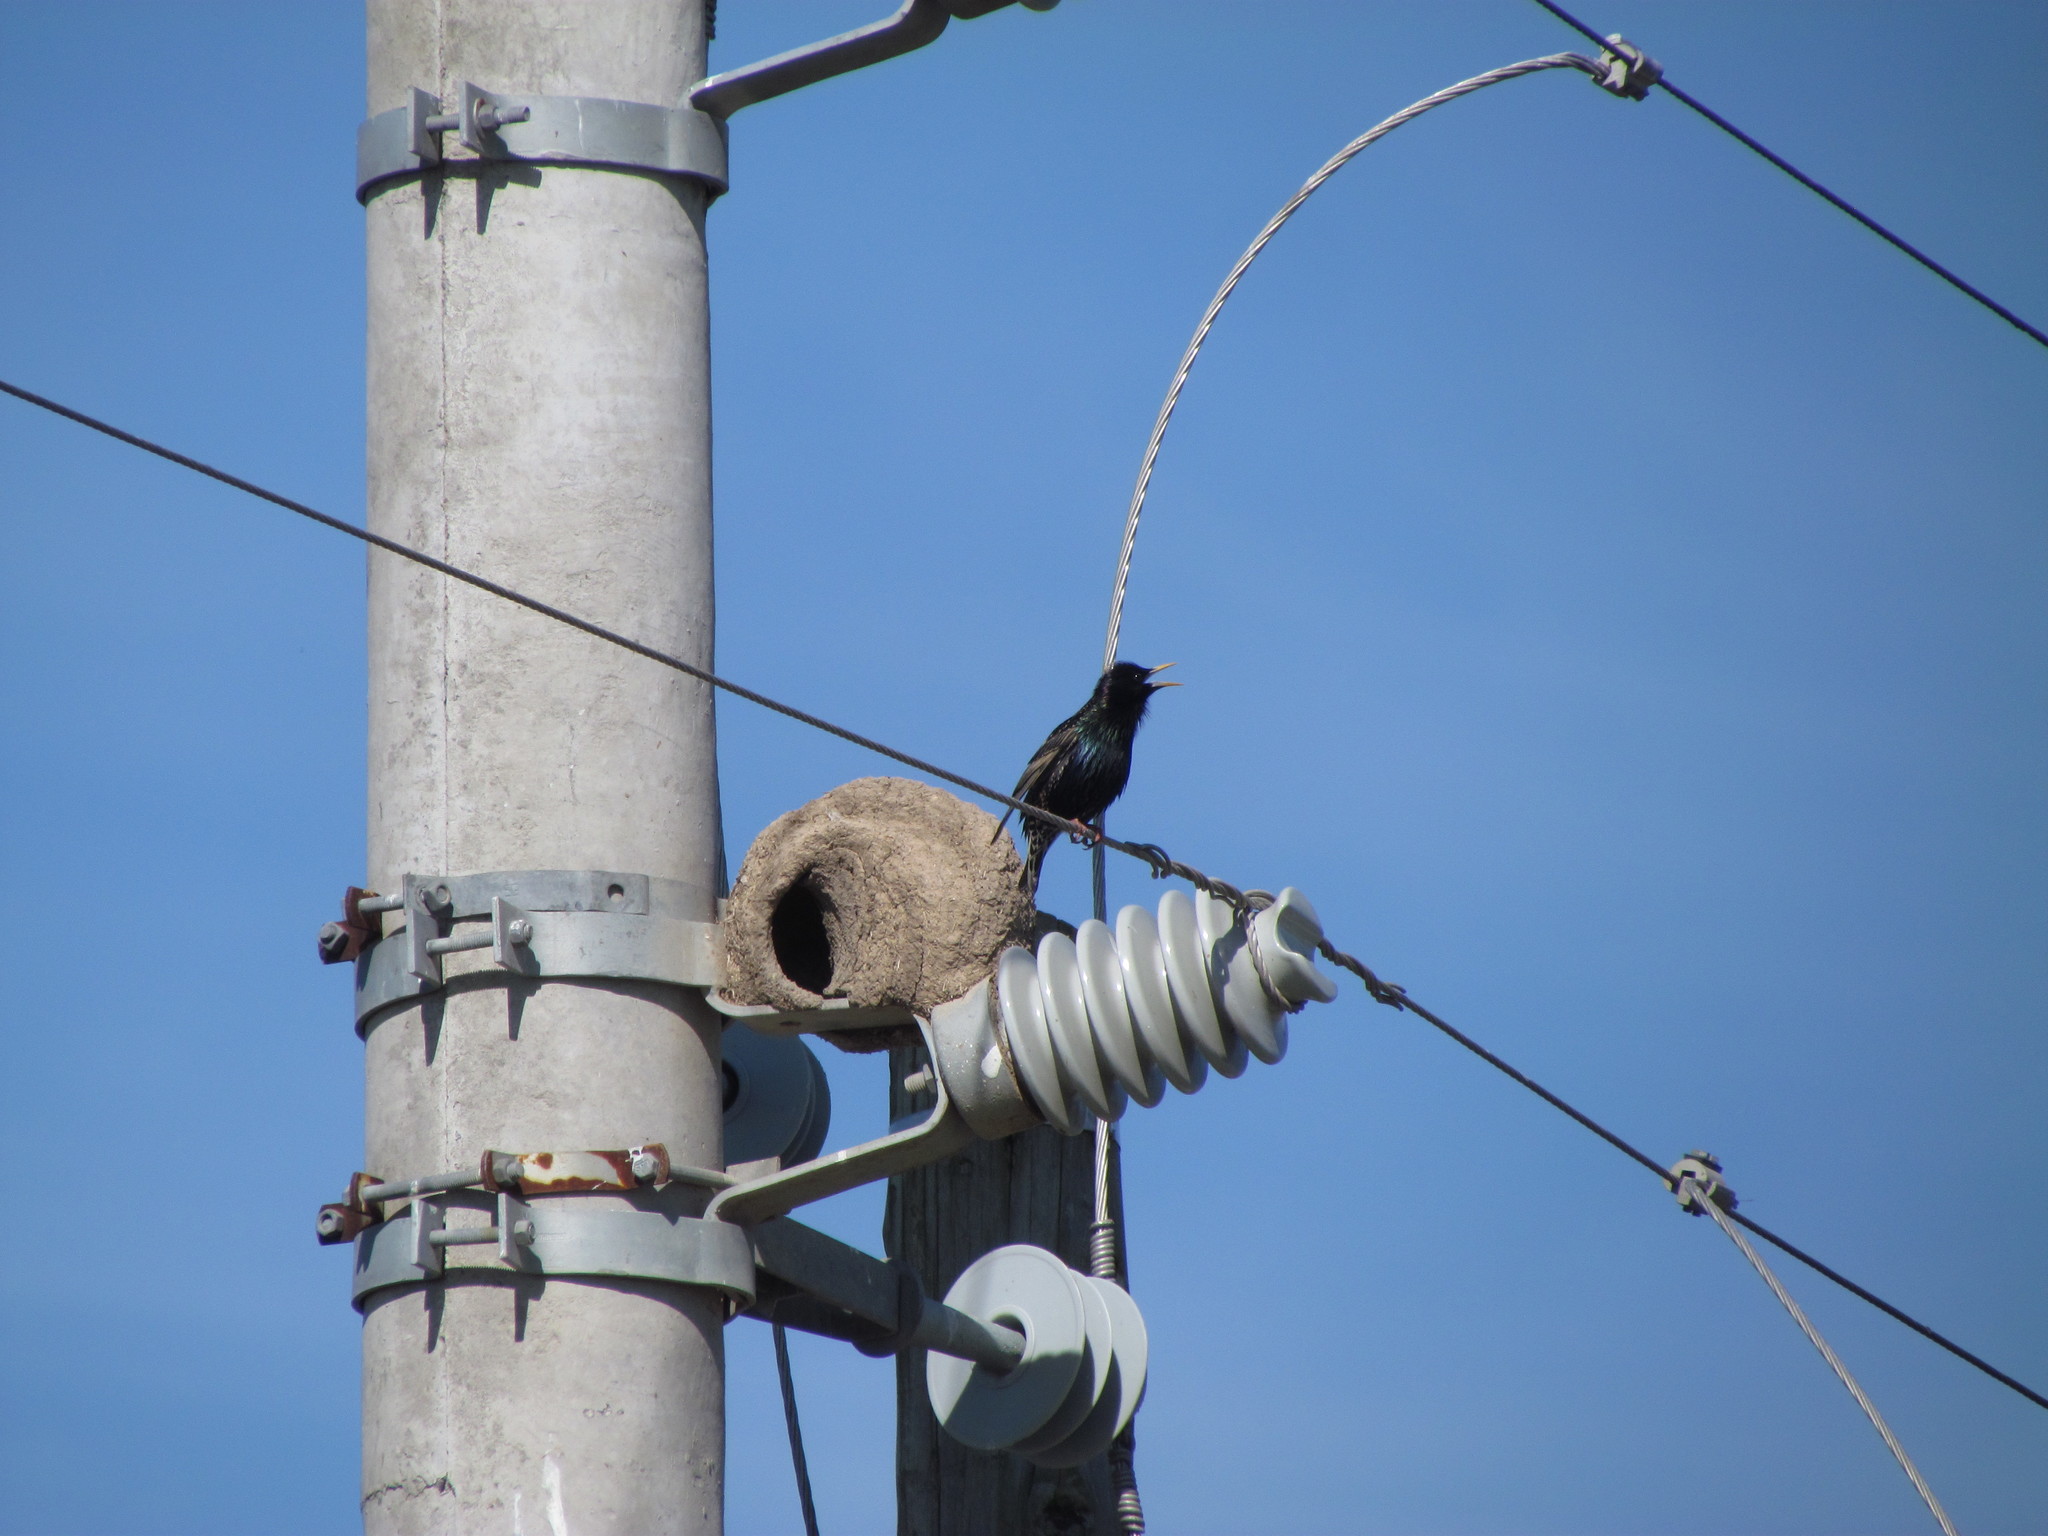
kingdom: Animalia
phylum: Chordata
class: Aves
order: Passeriformes
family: Sturnidae
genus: Sturnus
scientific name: Sturnus vulgaris
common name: Common starling
